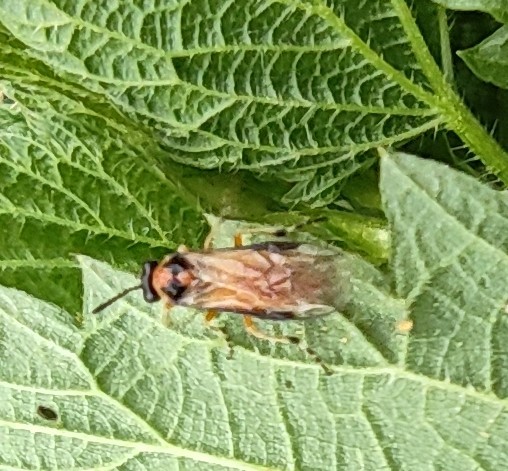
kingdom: Animalia
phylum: Arthropoda
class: Insecta
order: Hymenoptera
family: Tenthredinidae
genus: Athalia
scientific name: Athalia rosae
